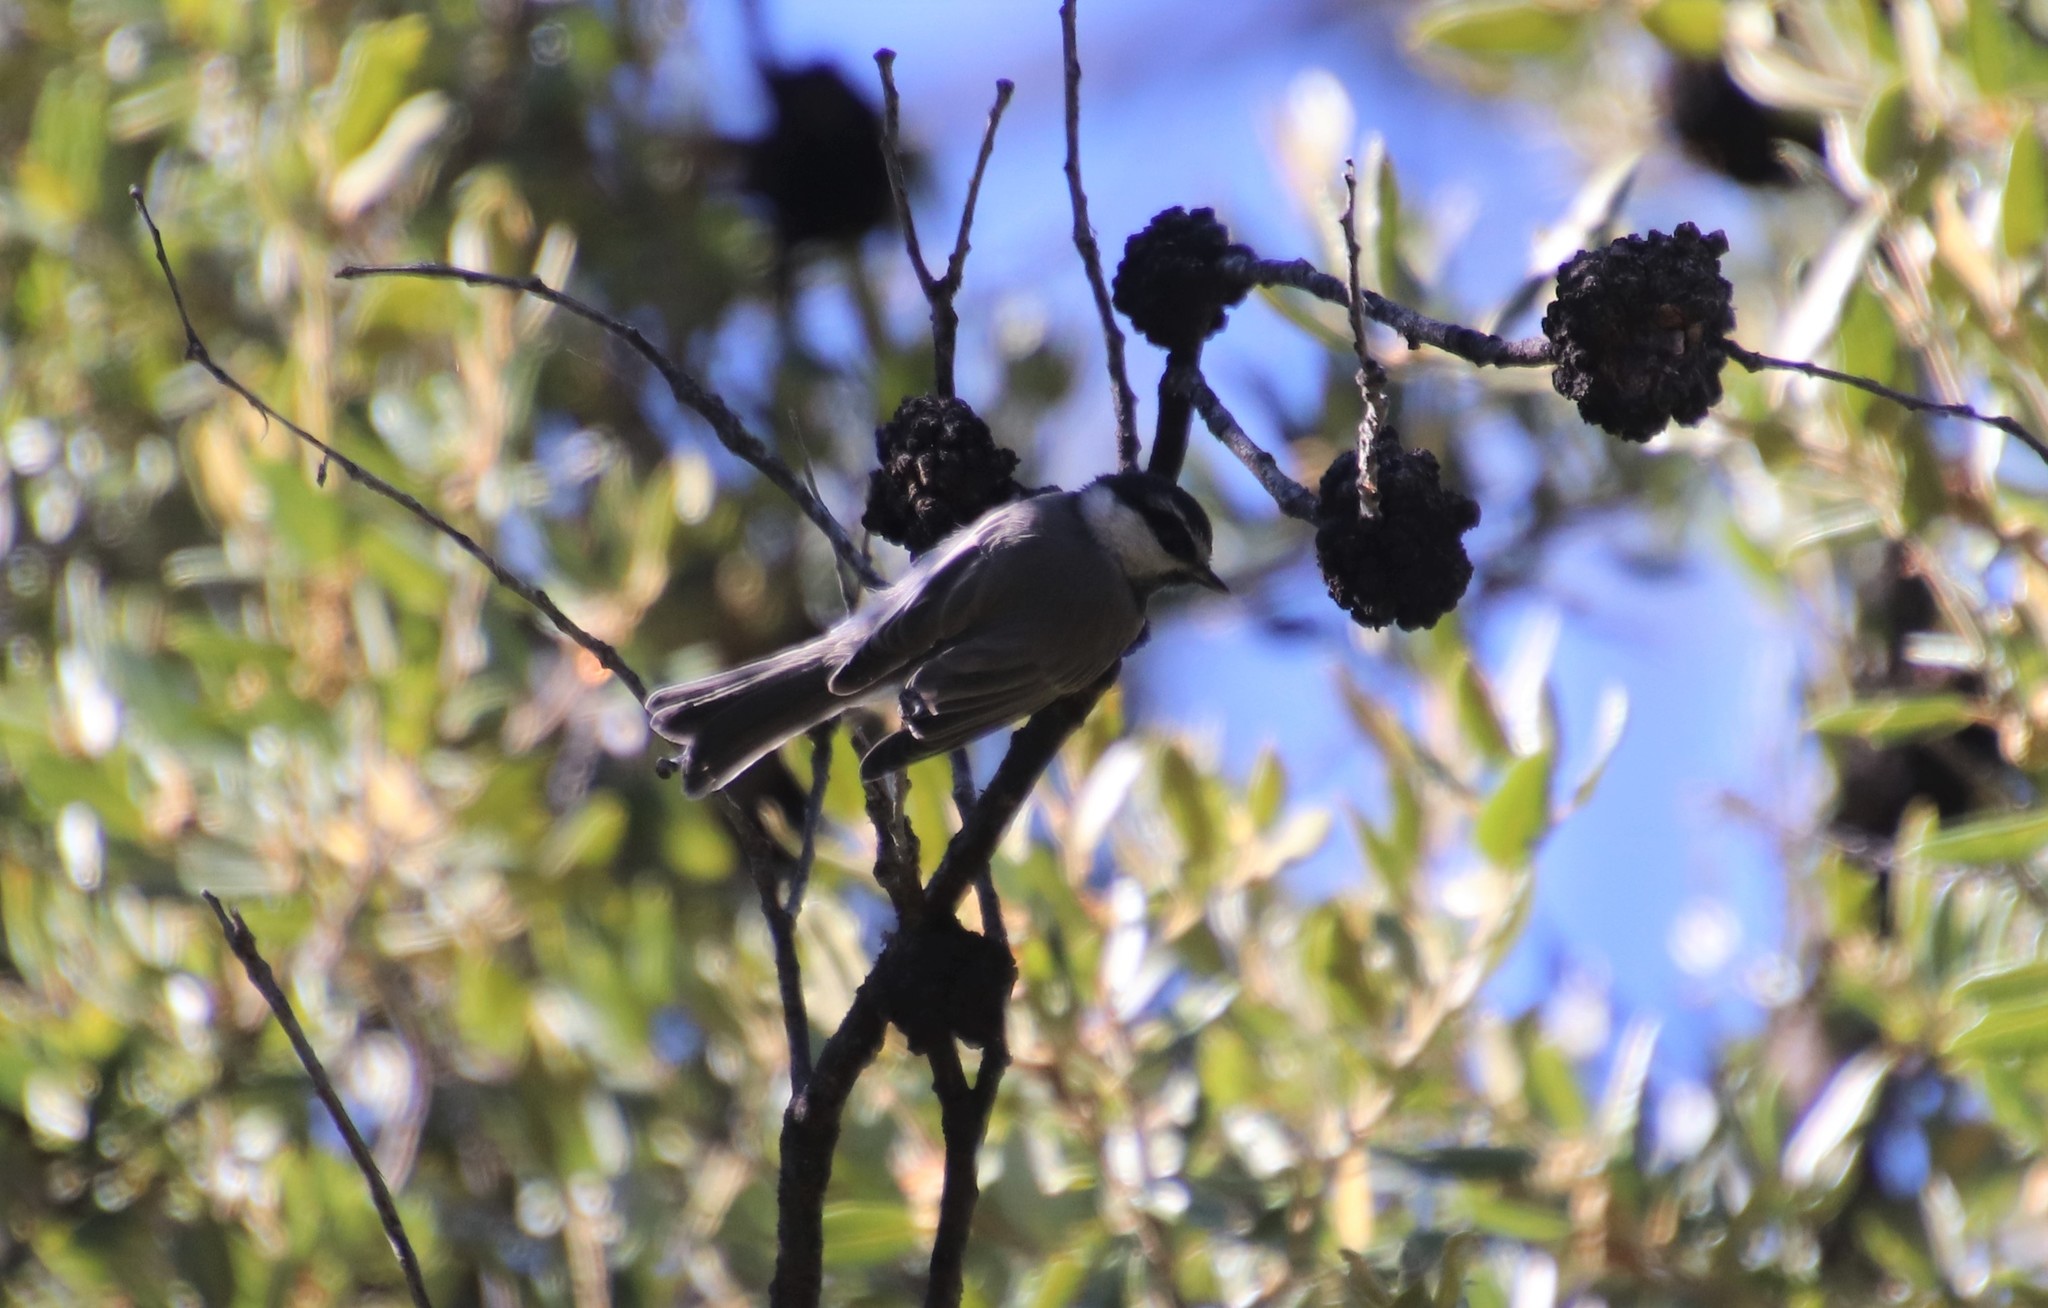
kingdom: Animalia
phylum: Chordata
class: Aves
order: Passeriformes
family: Paridae
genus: Poecile
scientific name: Poecile gambeli
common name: Mountain chickadee
